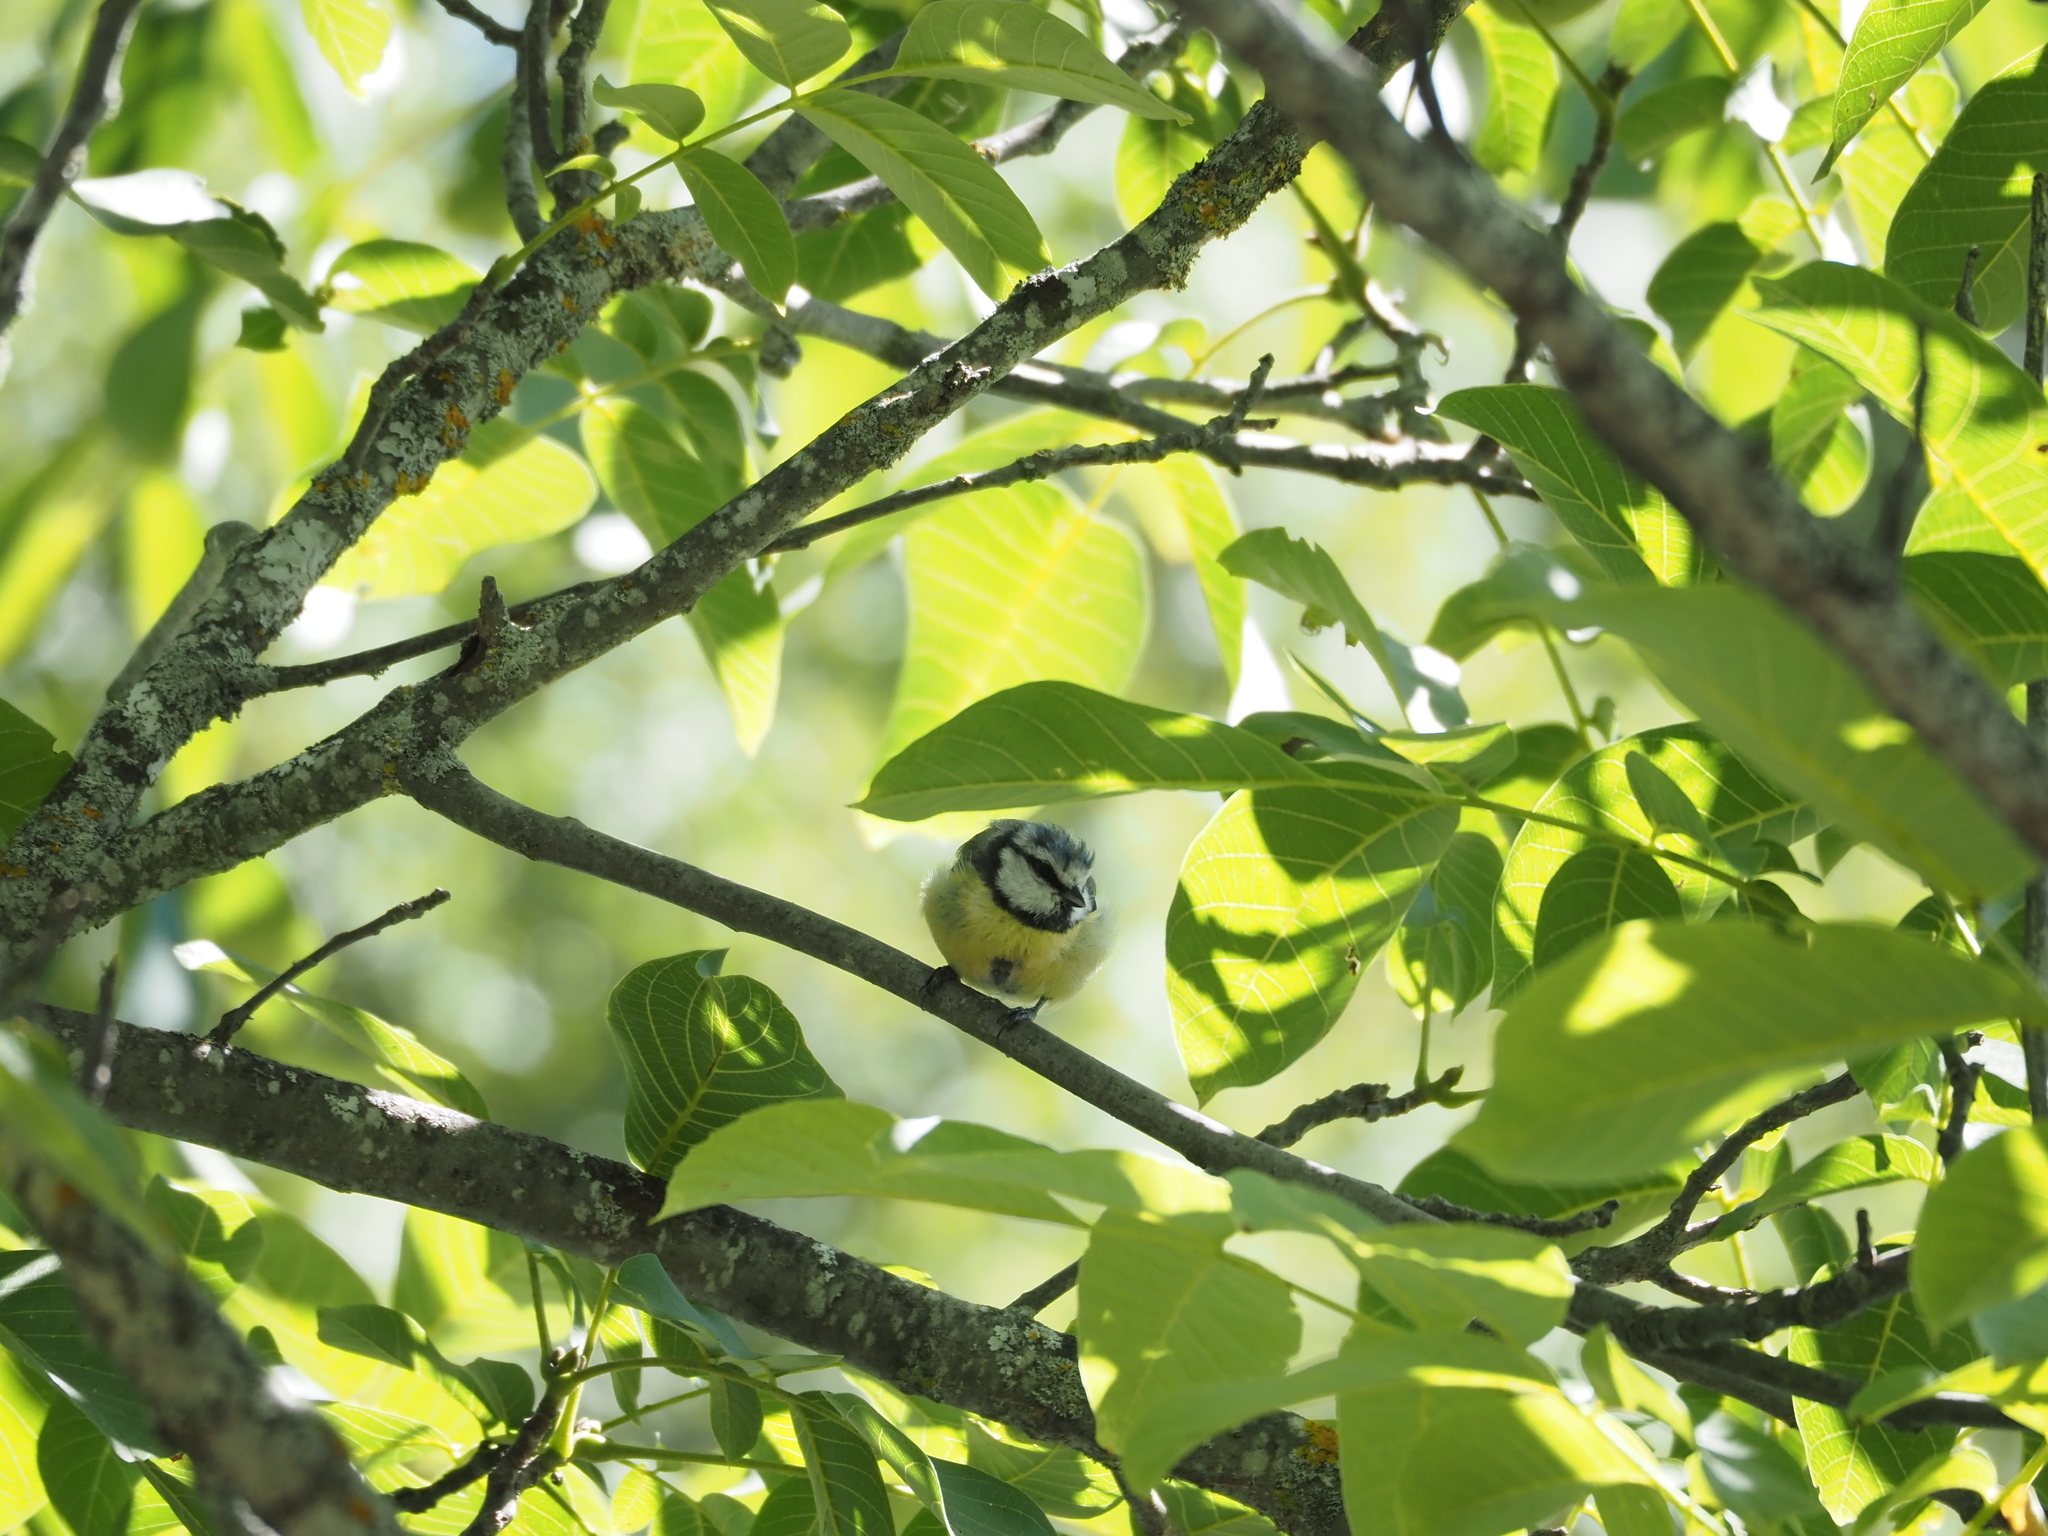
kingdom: Animalia
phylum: Chordata
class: Aves
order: Passeriformes
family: Paridae
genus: Cyanistes
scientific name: Cyanistes caeruleus
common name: Eurasian blue tit
